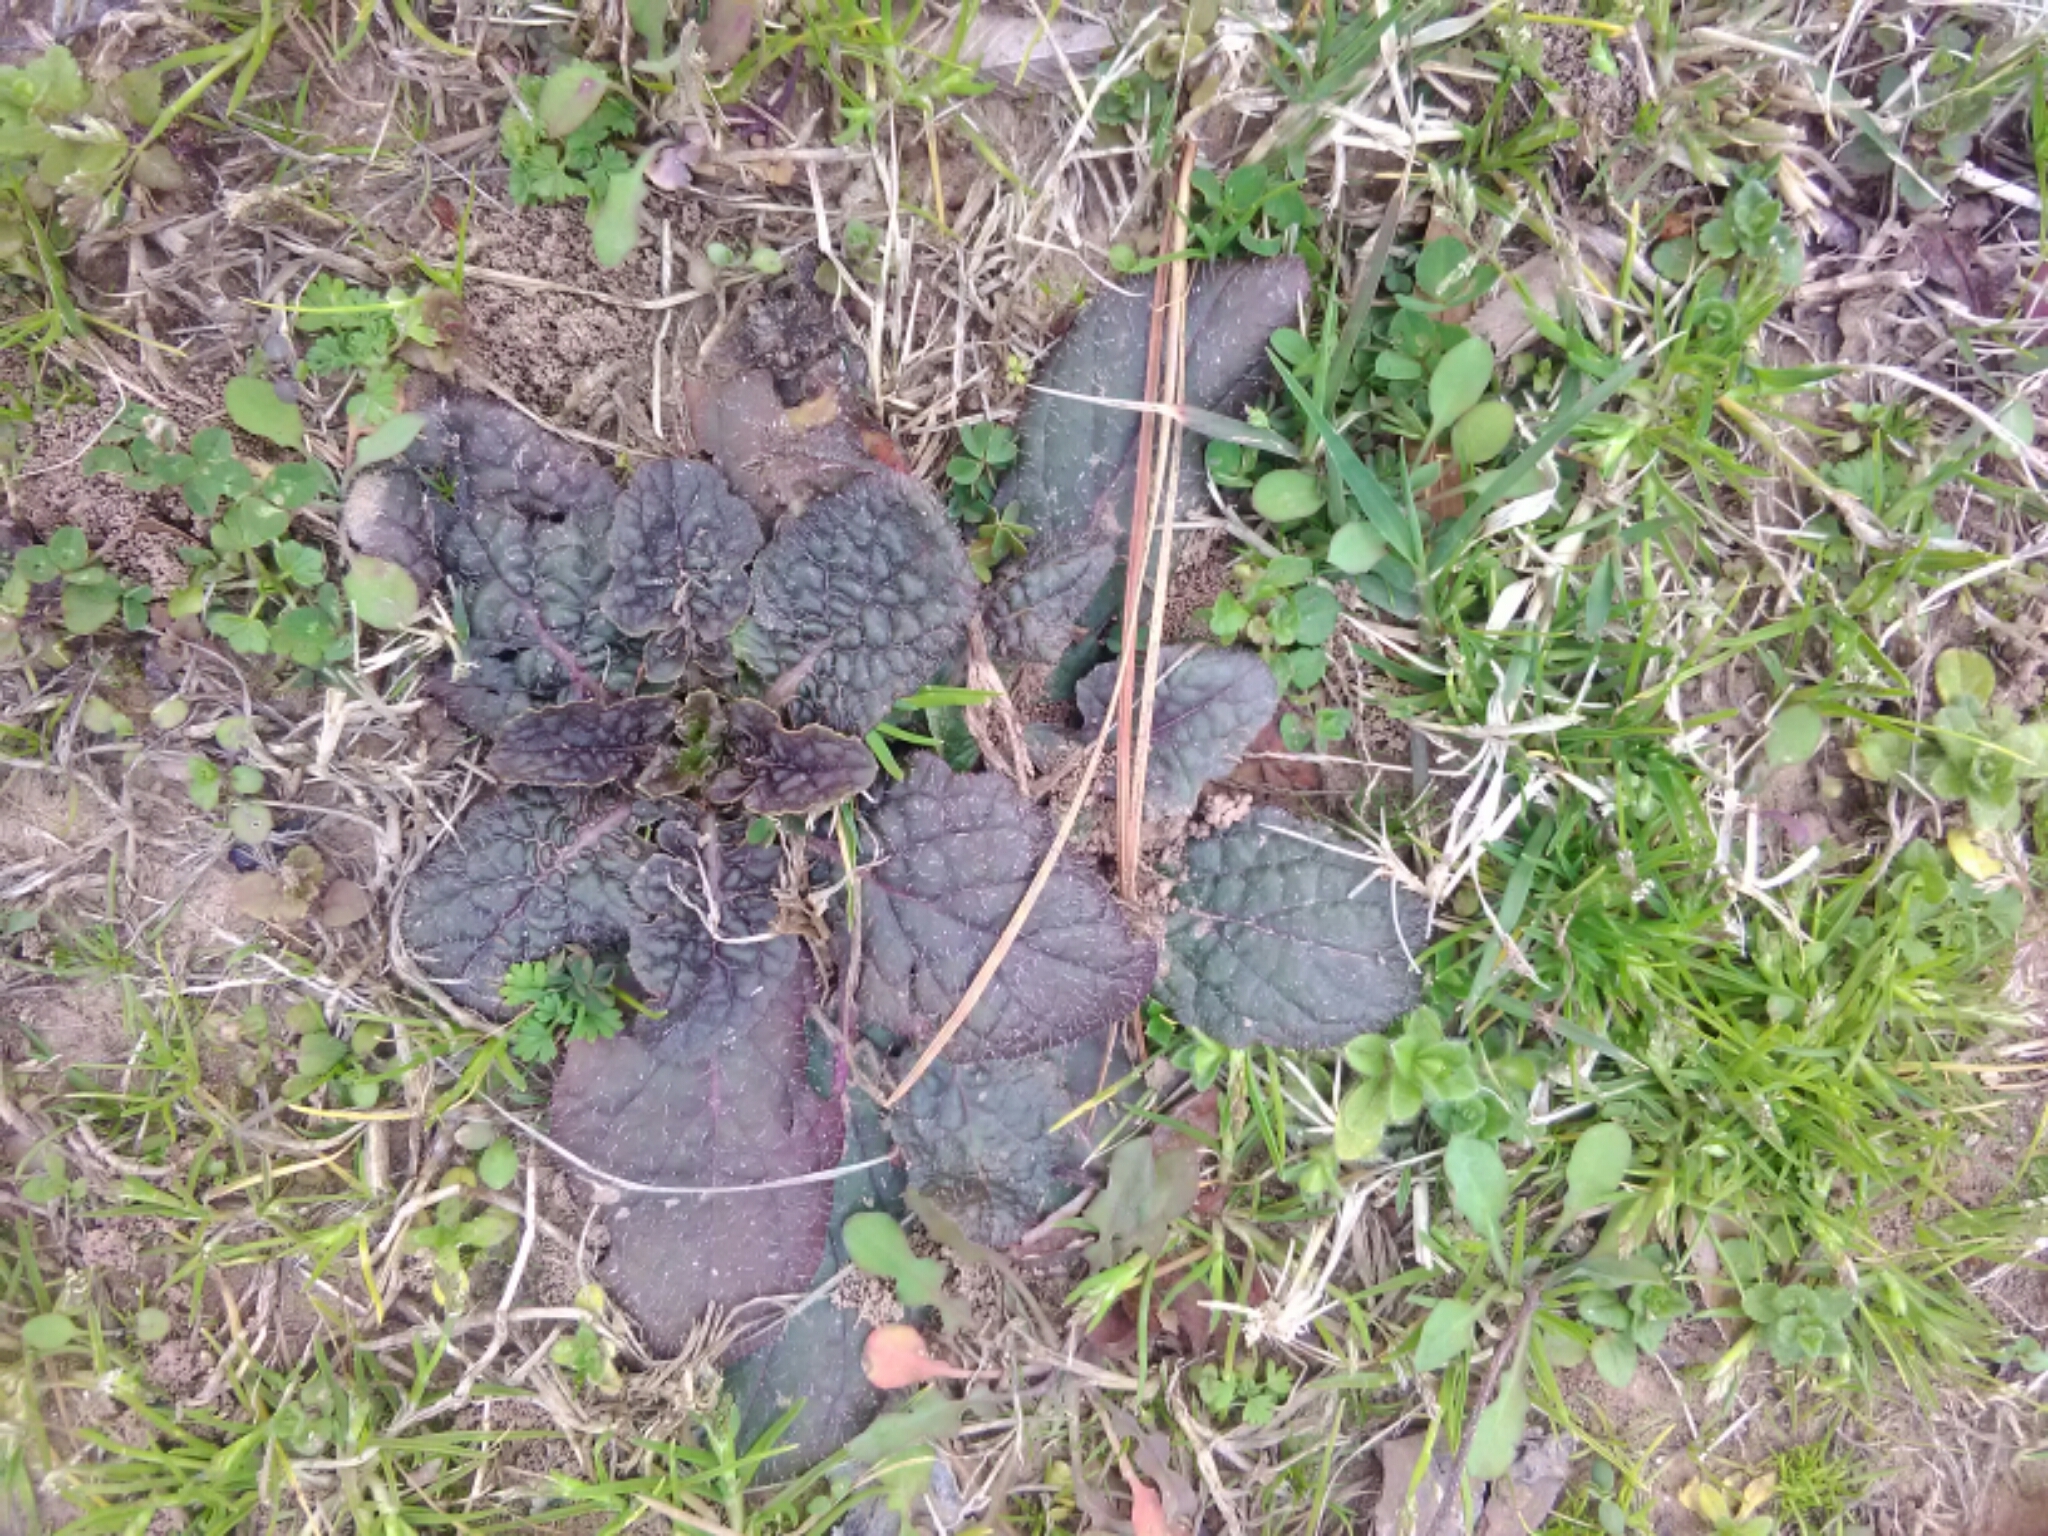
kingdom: Plantae
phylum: Tracheophyta
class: Magnoliopsida
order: Lamiales
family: Lamiaceae
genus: Salvia
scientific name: Salvia lyrata
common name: Cancerweed
